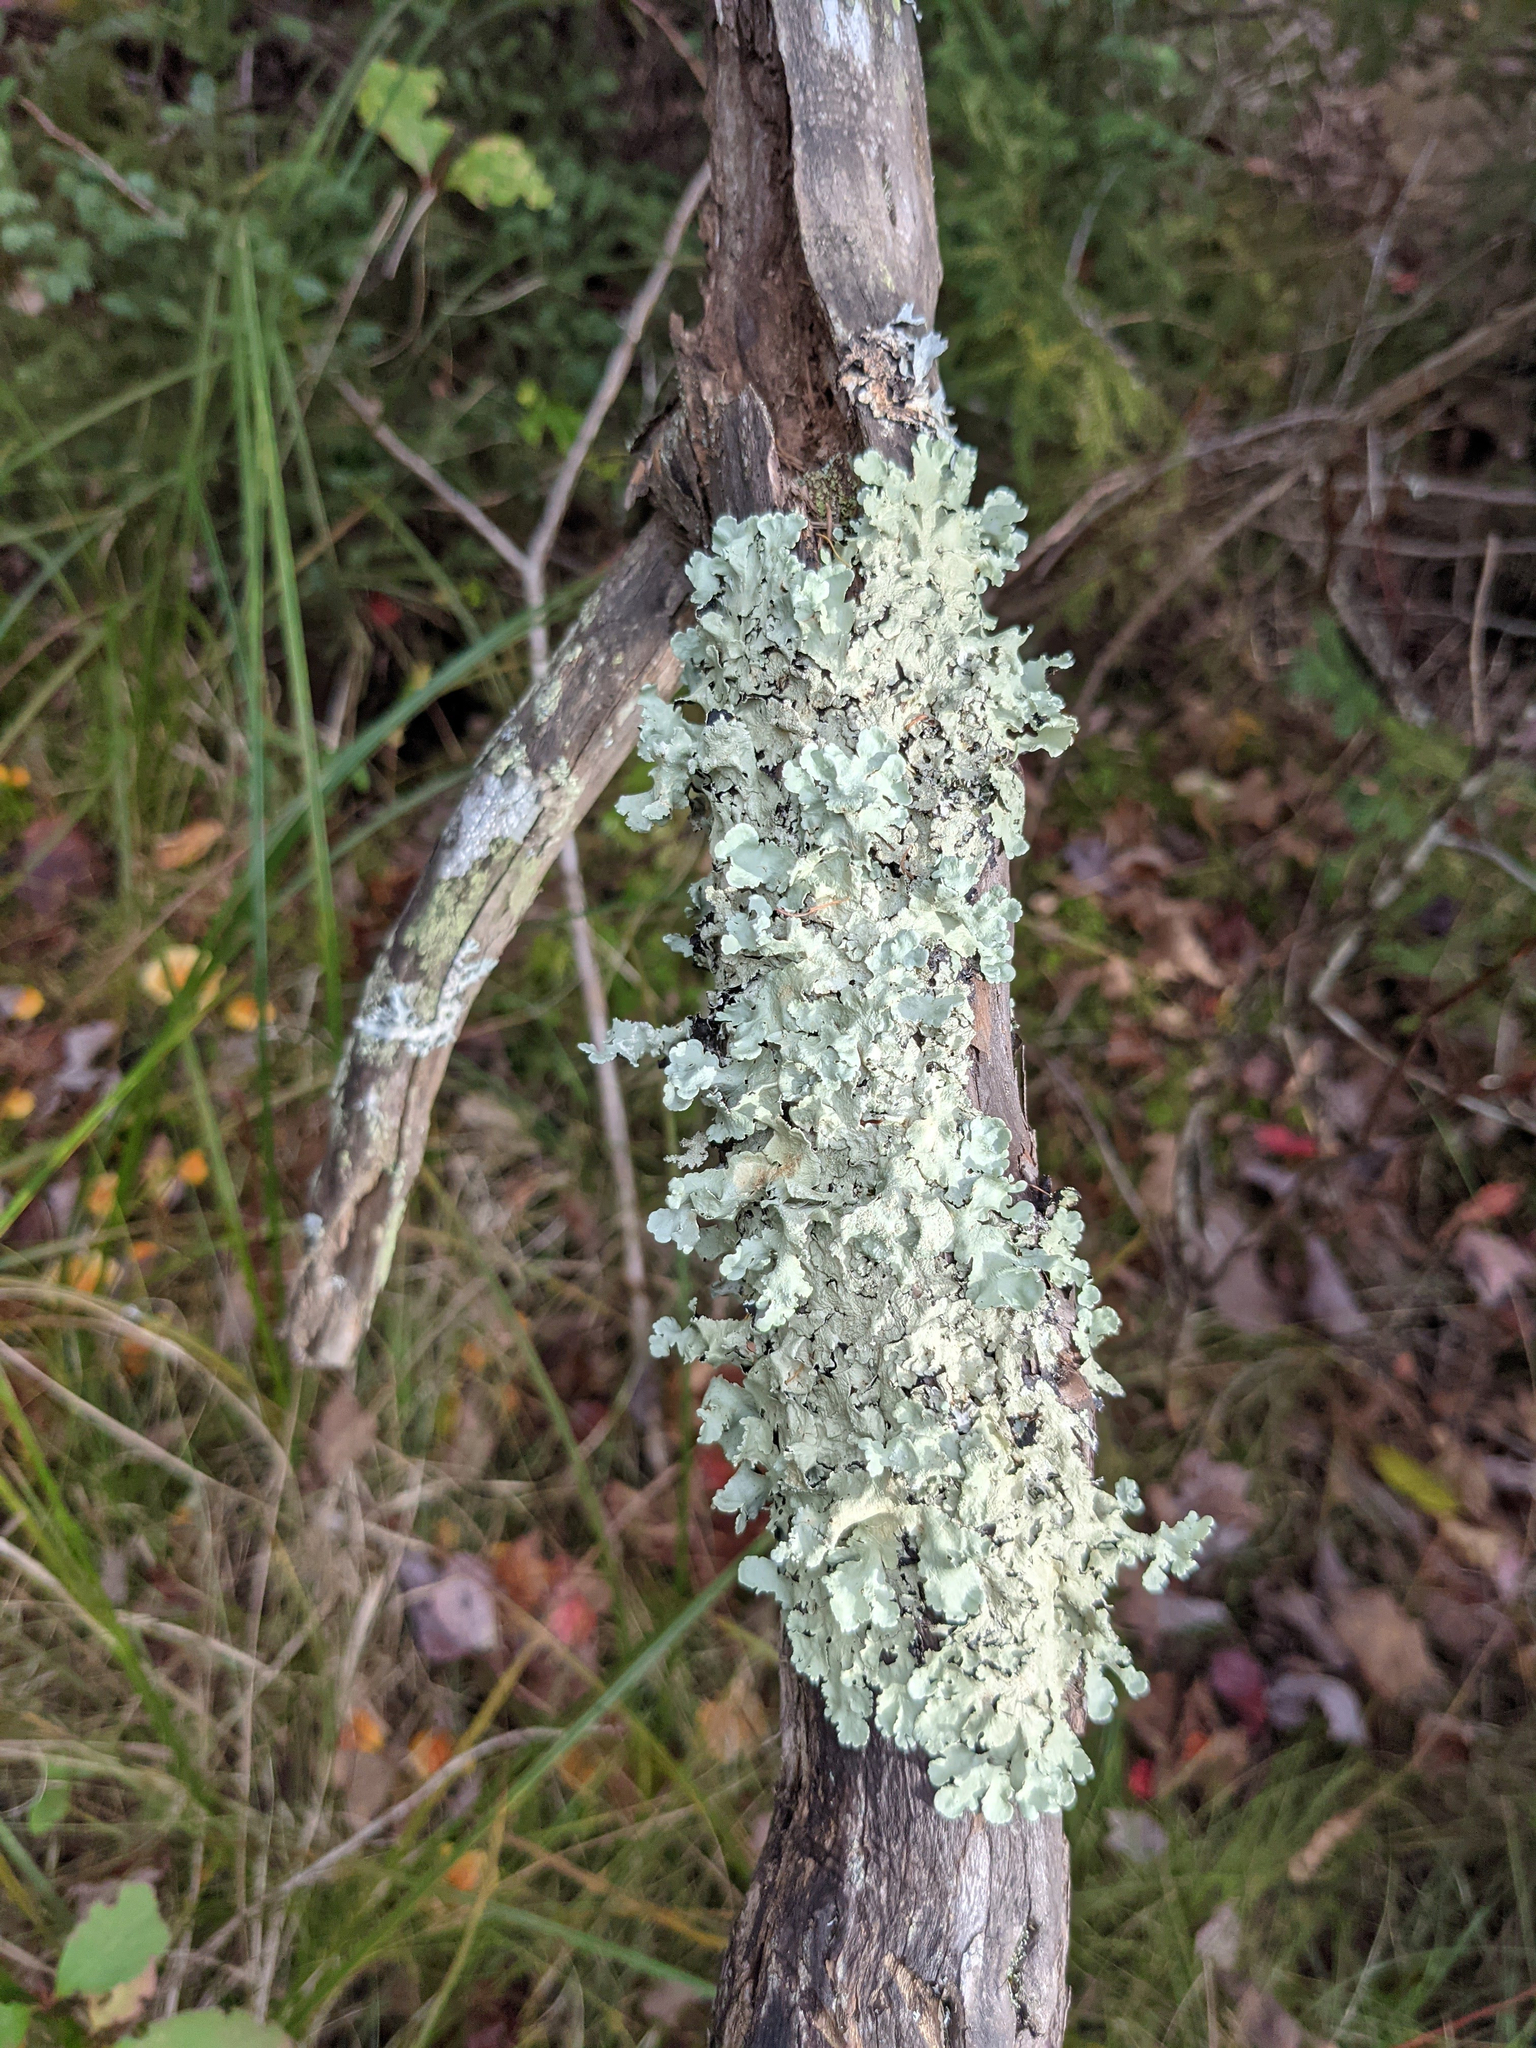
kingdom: Fungi
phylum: Ascomycota
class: Lecanoromycetes
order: Lecanorales
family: Parmeliaceae
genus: Flavoparmelia
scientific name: Flavoparmelia caperata
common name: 40-mile per hour lichen
